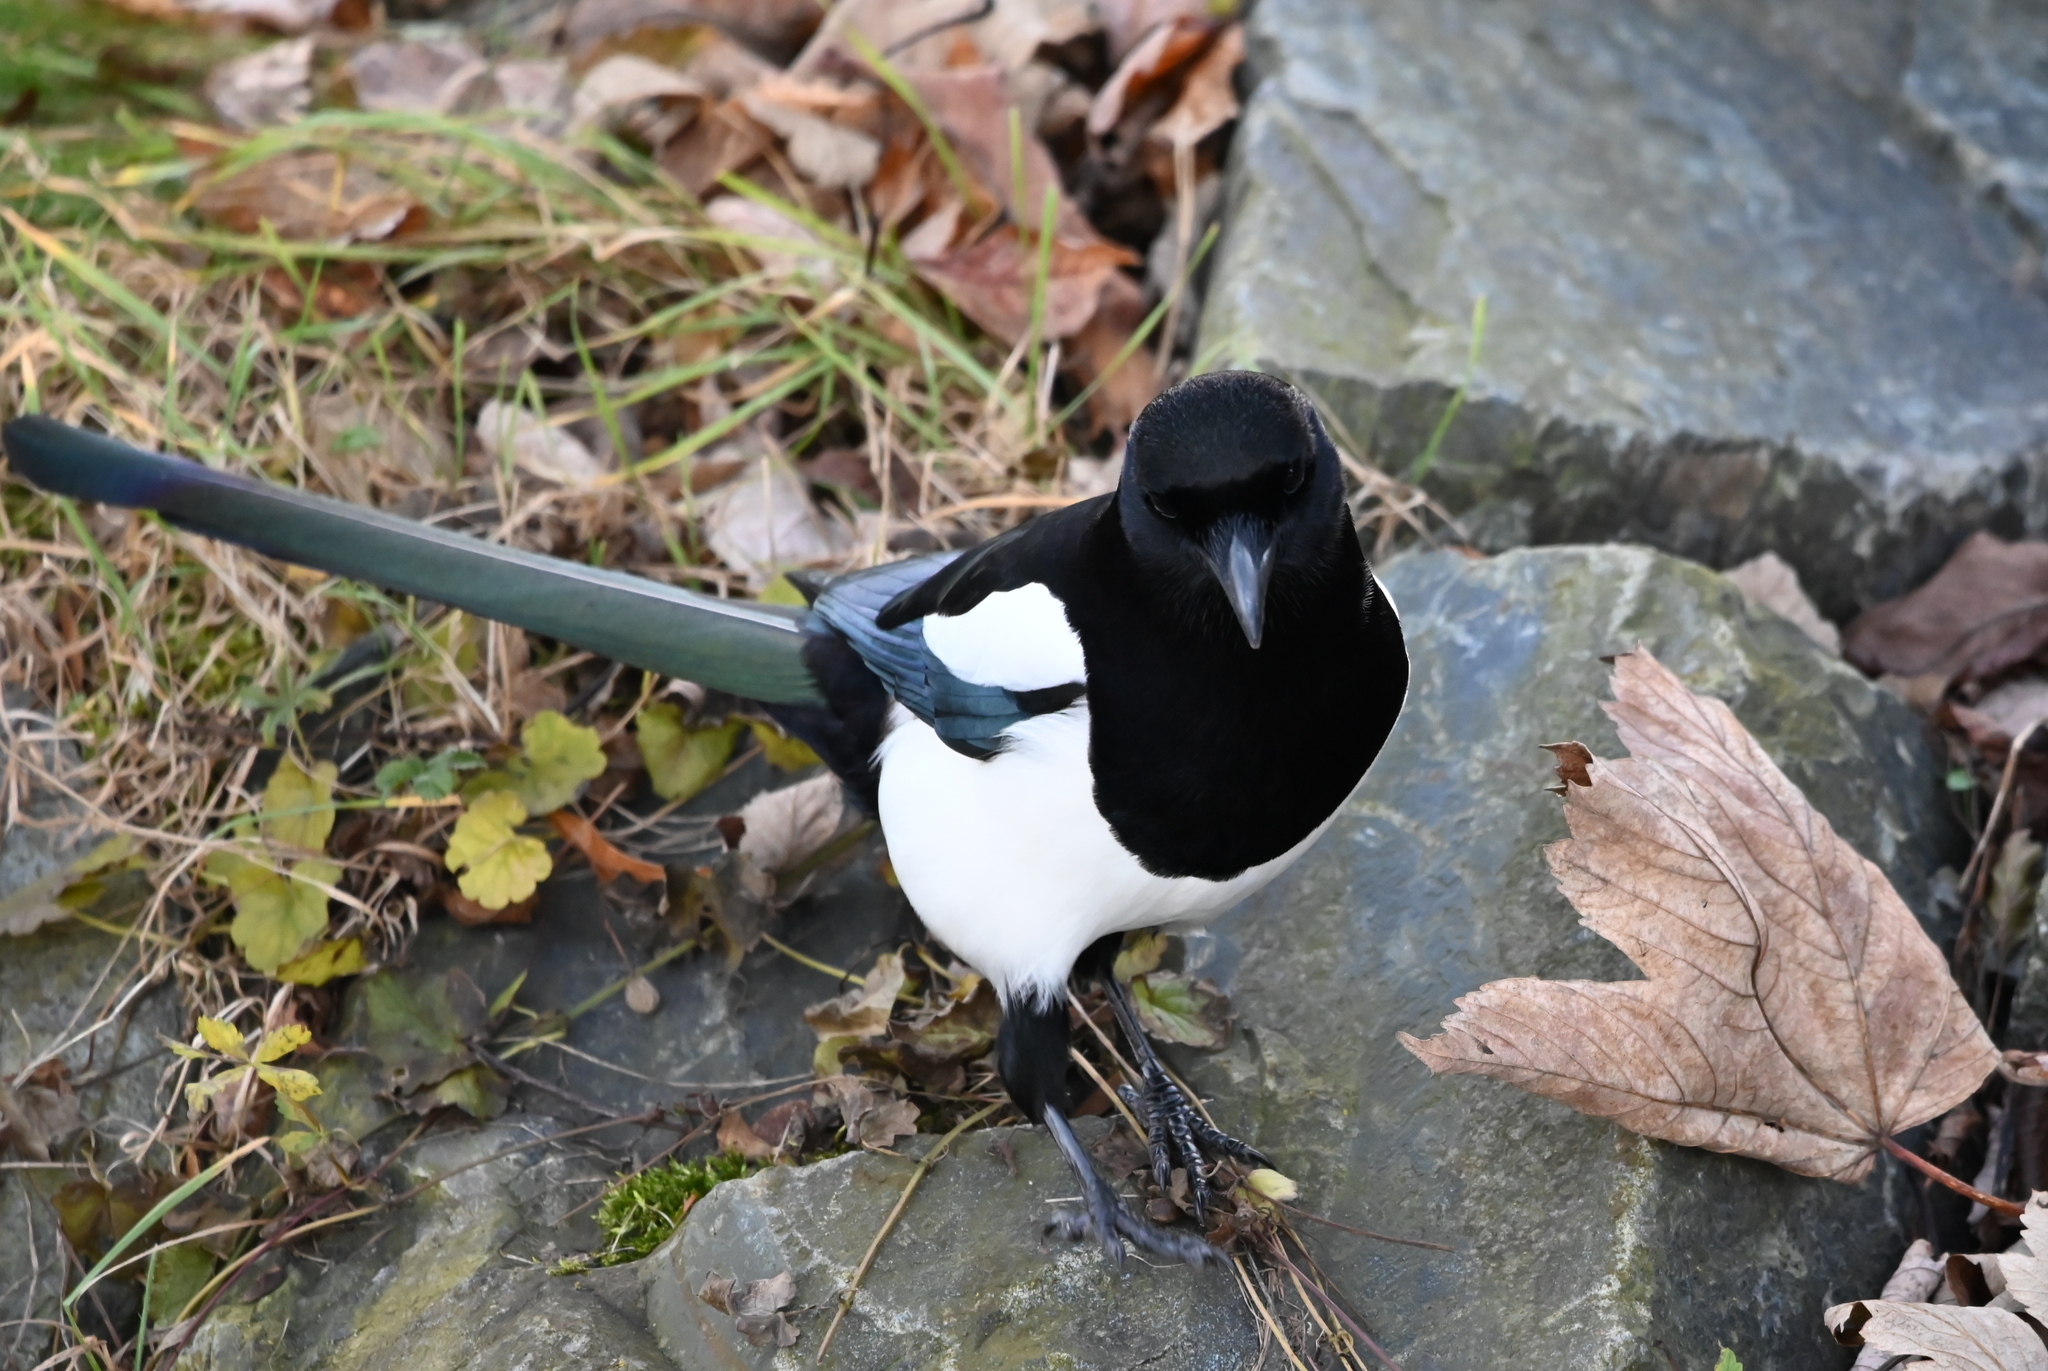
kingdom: Animalia
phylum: Chordata
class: Aves
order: Passeriformes
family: Corvidae
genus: Pica
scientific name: Pica pica
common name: Eurasian magpie
